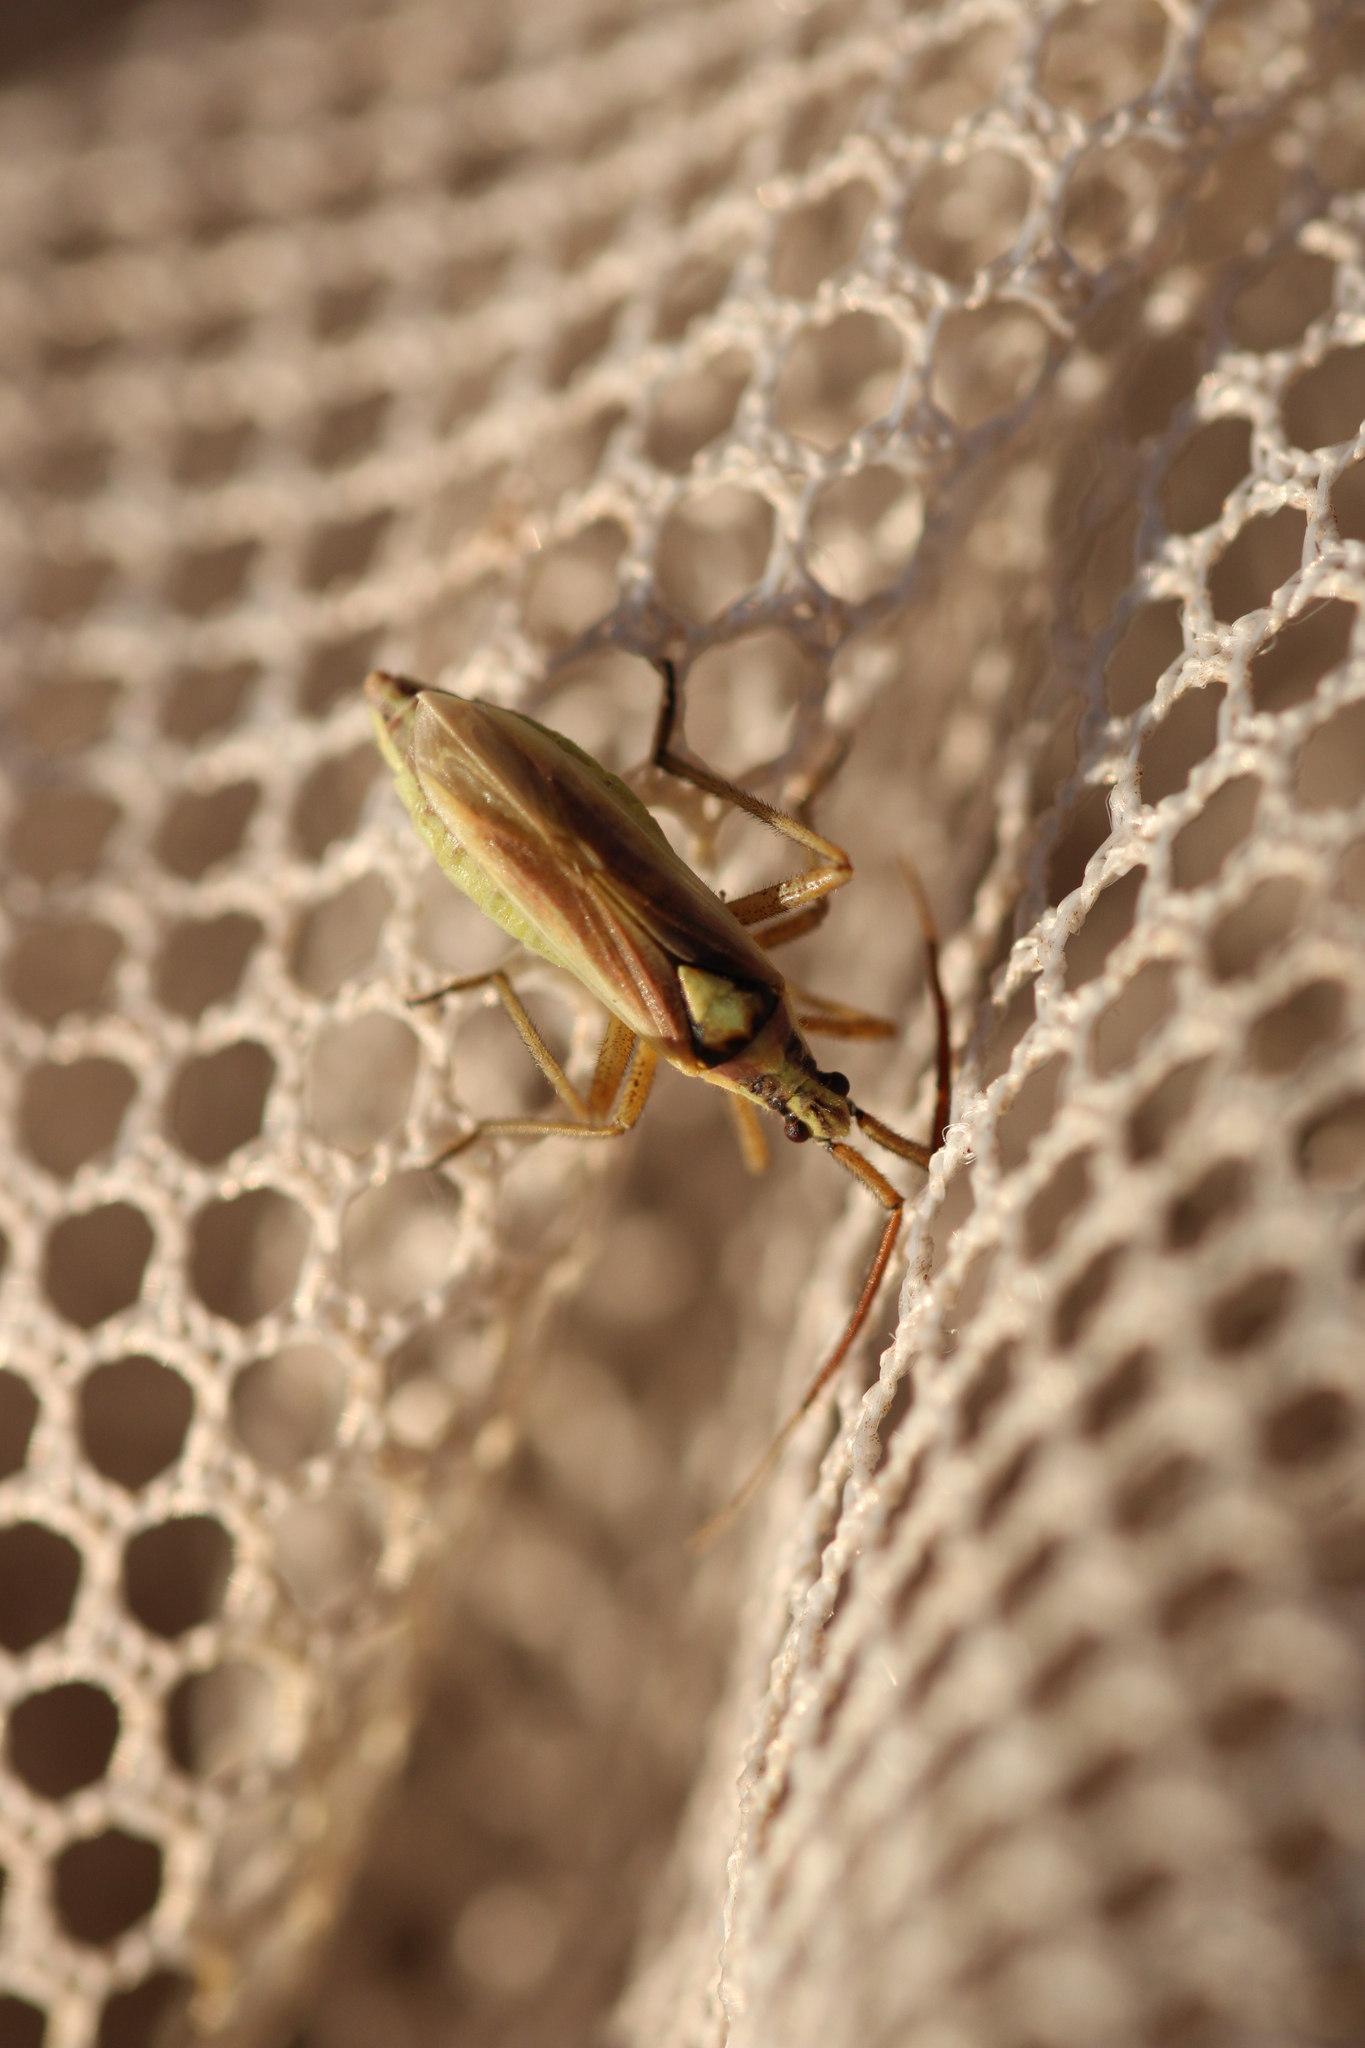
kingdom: Animalia
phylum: Arthropoda
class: Insecta
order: Hemiptera
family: Miridae
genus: Leptopterna
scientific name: Leptopterna ferrugata
